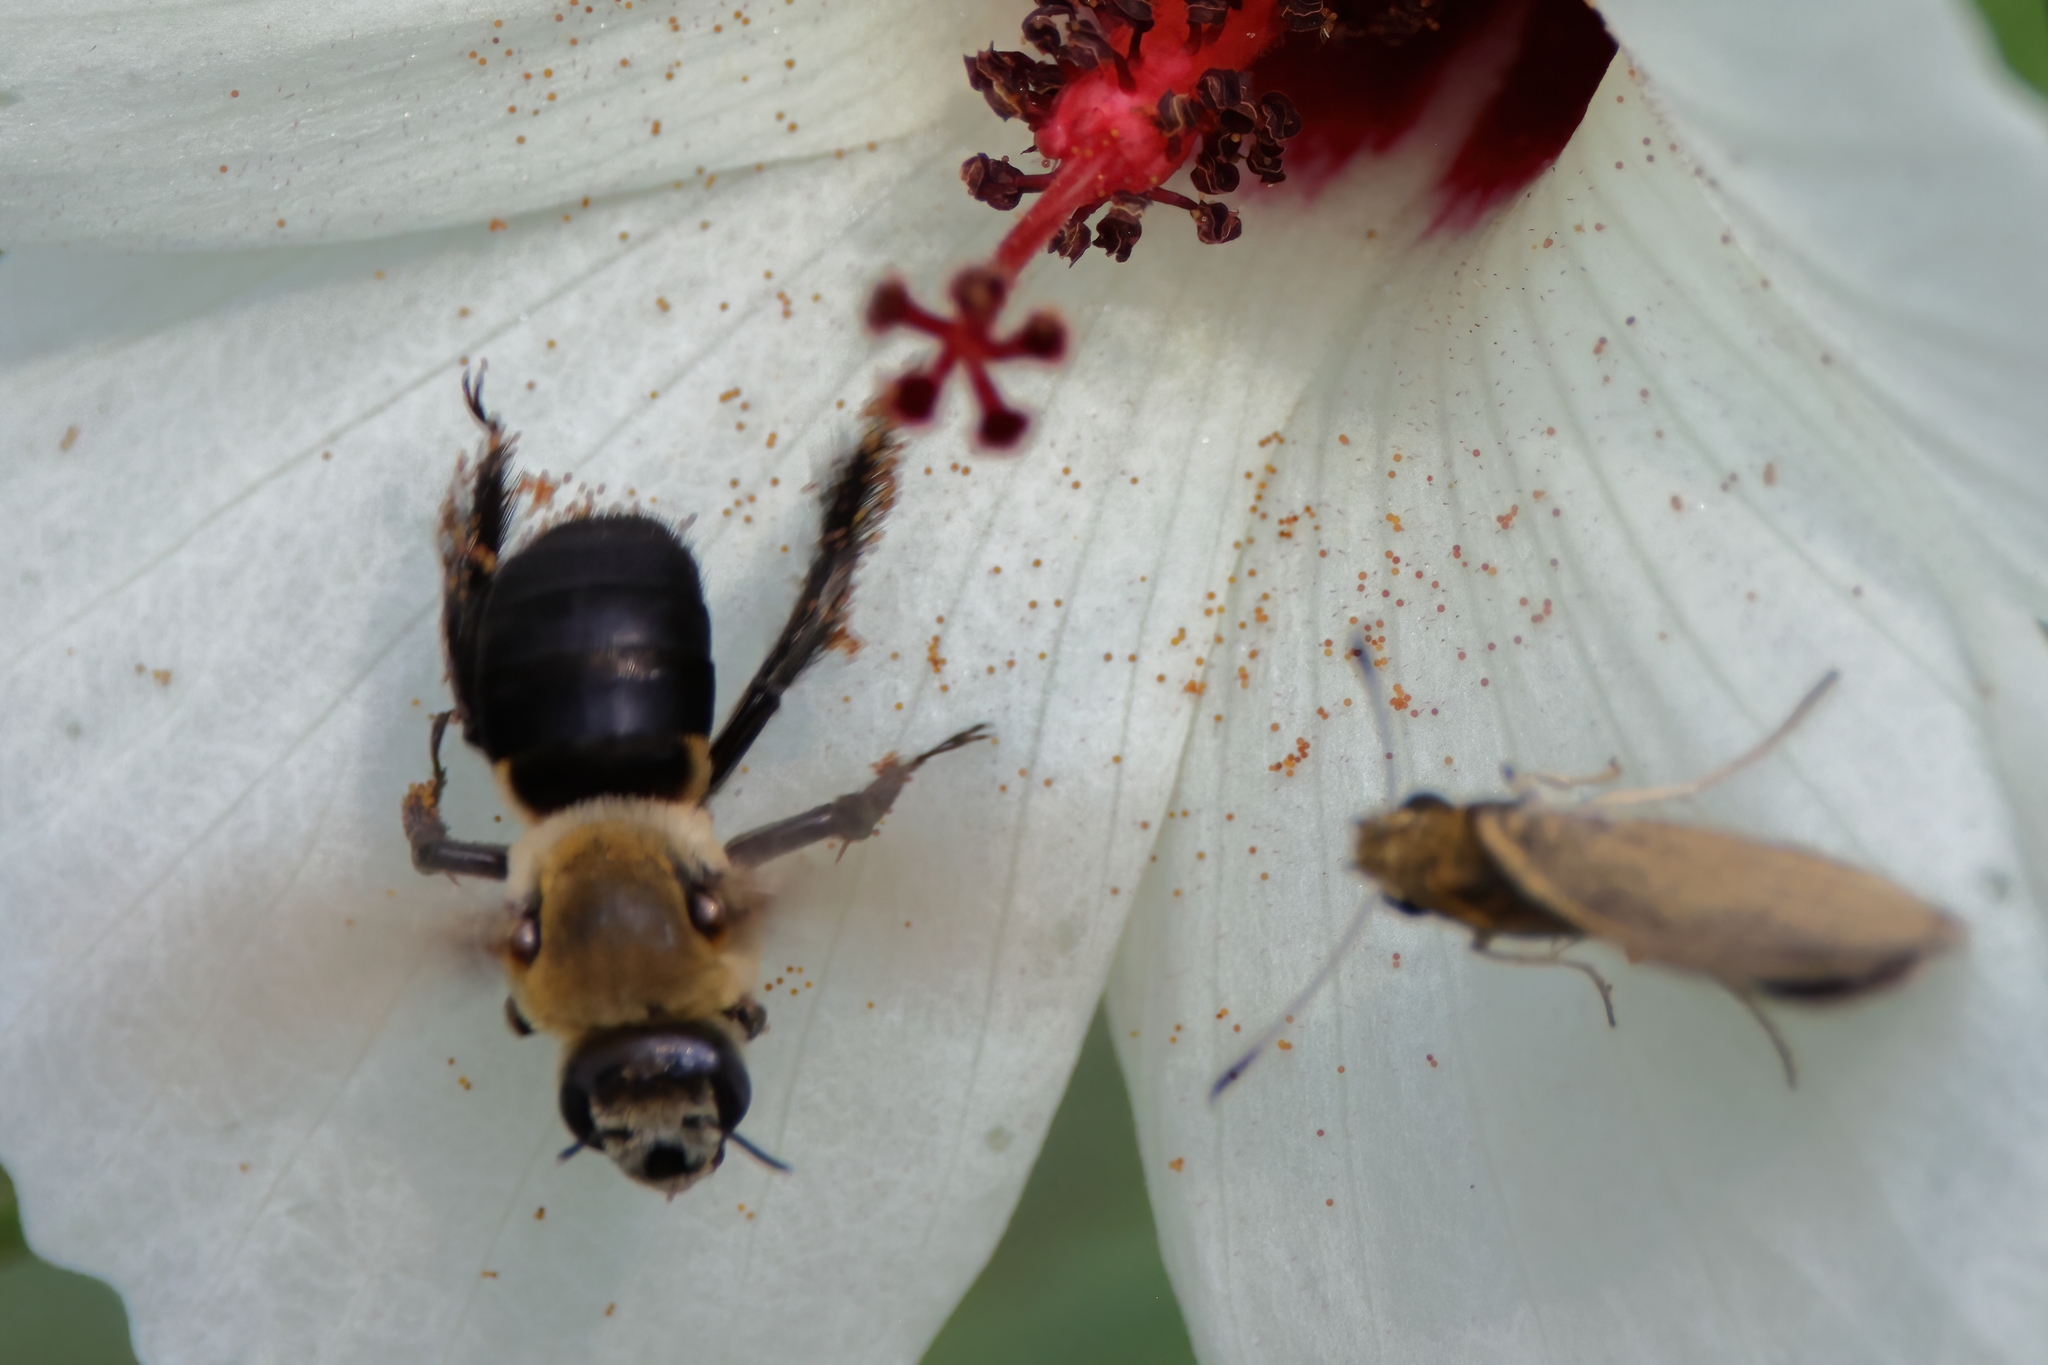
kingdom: Animalia
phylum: Arthropoda
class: Insecta
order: Hymenoptera
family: Apidae
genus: Ptilothrix
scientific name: Ptilothrix bombiformis
